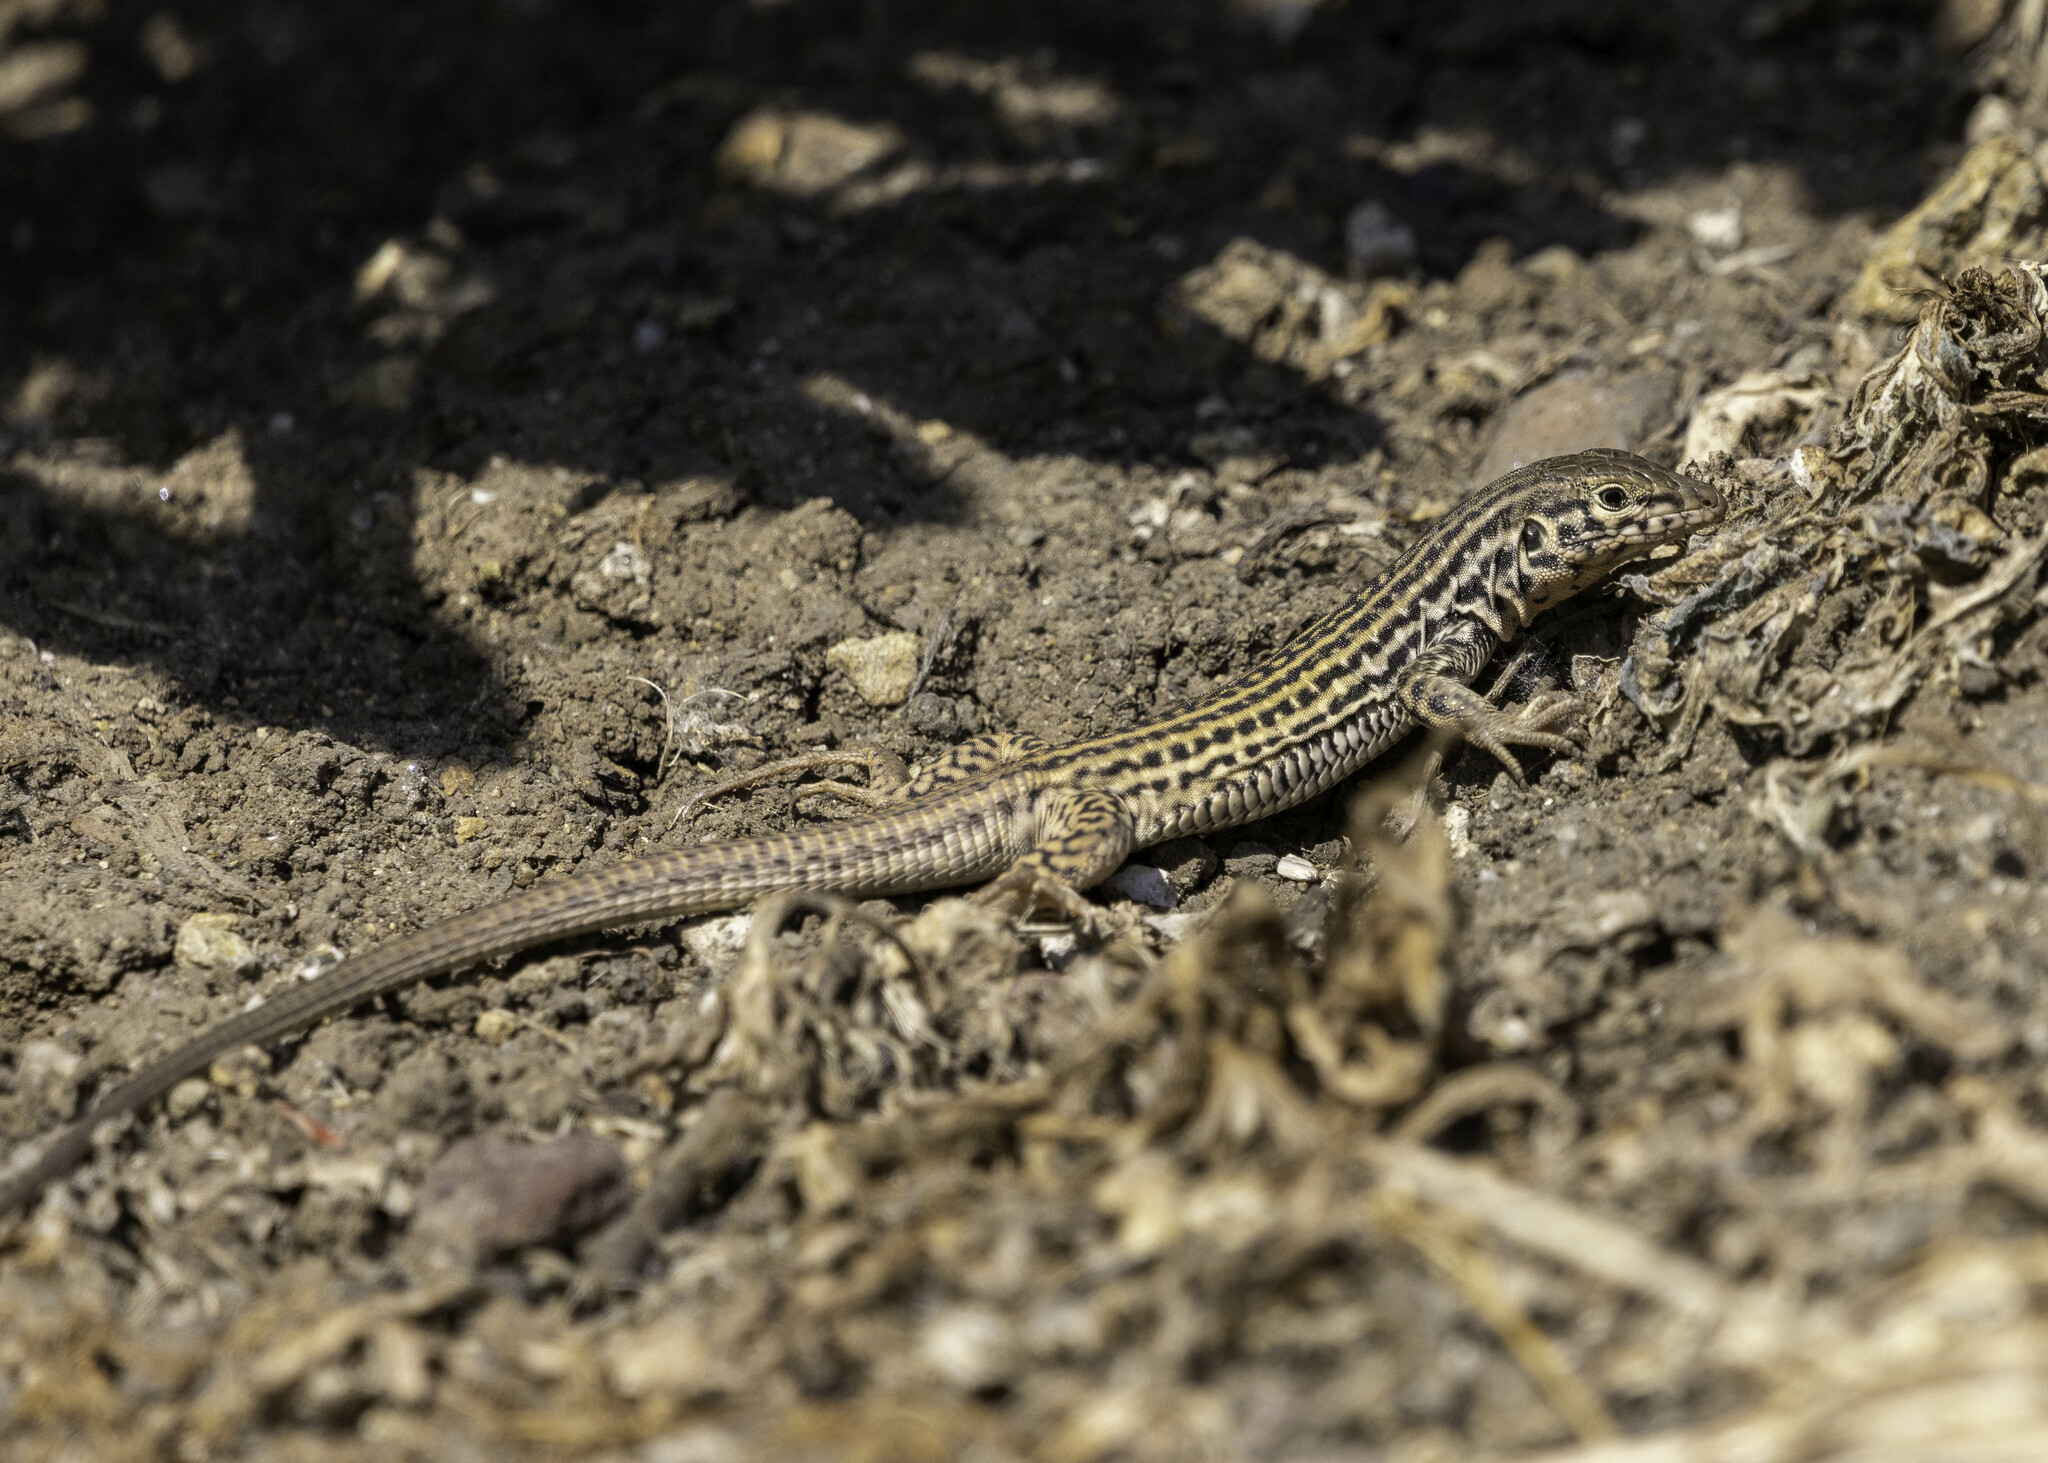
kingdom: Animalia
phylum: Chordata
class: Squamata
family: Teiidae
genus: Aspidoscelis
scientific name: Aspidoscelis tigris
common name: Tiger whiptail
